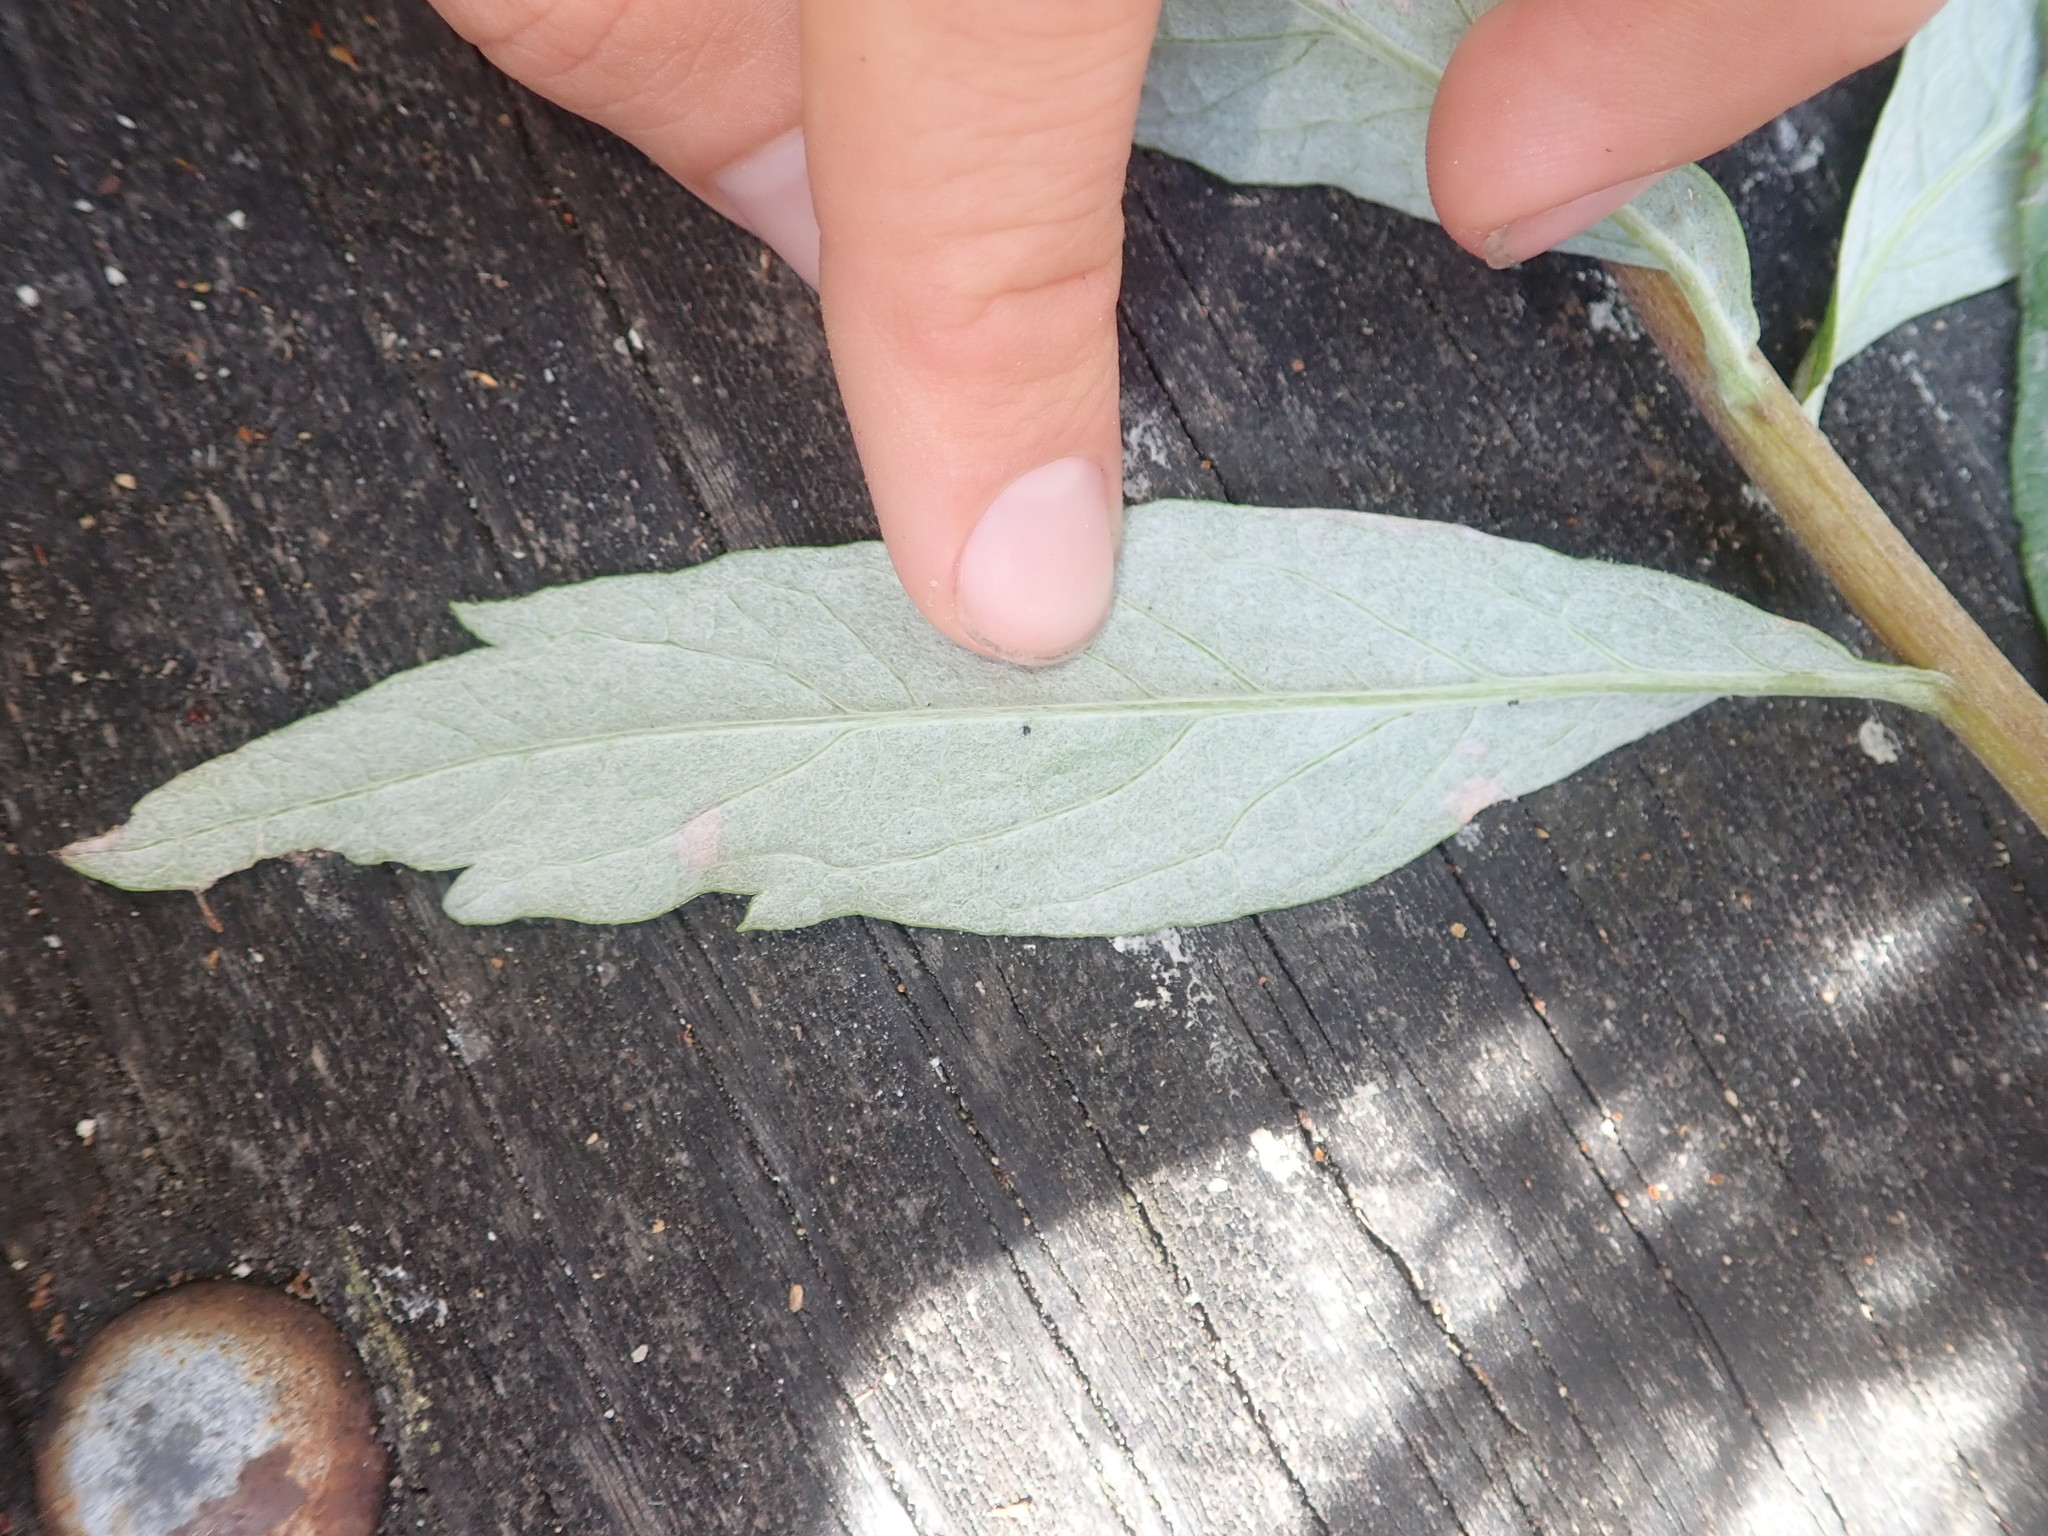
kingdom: Plantae
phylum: Tracheophyta
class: Magnoliopsida
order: Asterales
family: Asteraceae
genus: Artemisia
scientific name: Artemisia suksdorfii
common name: Suksdorf sagewort
